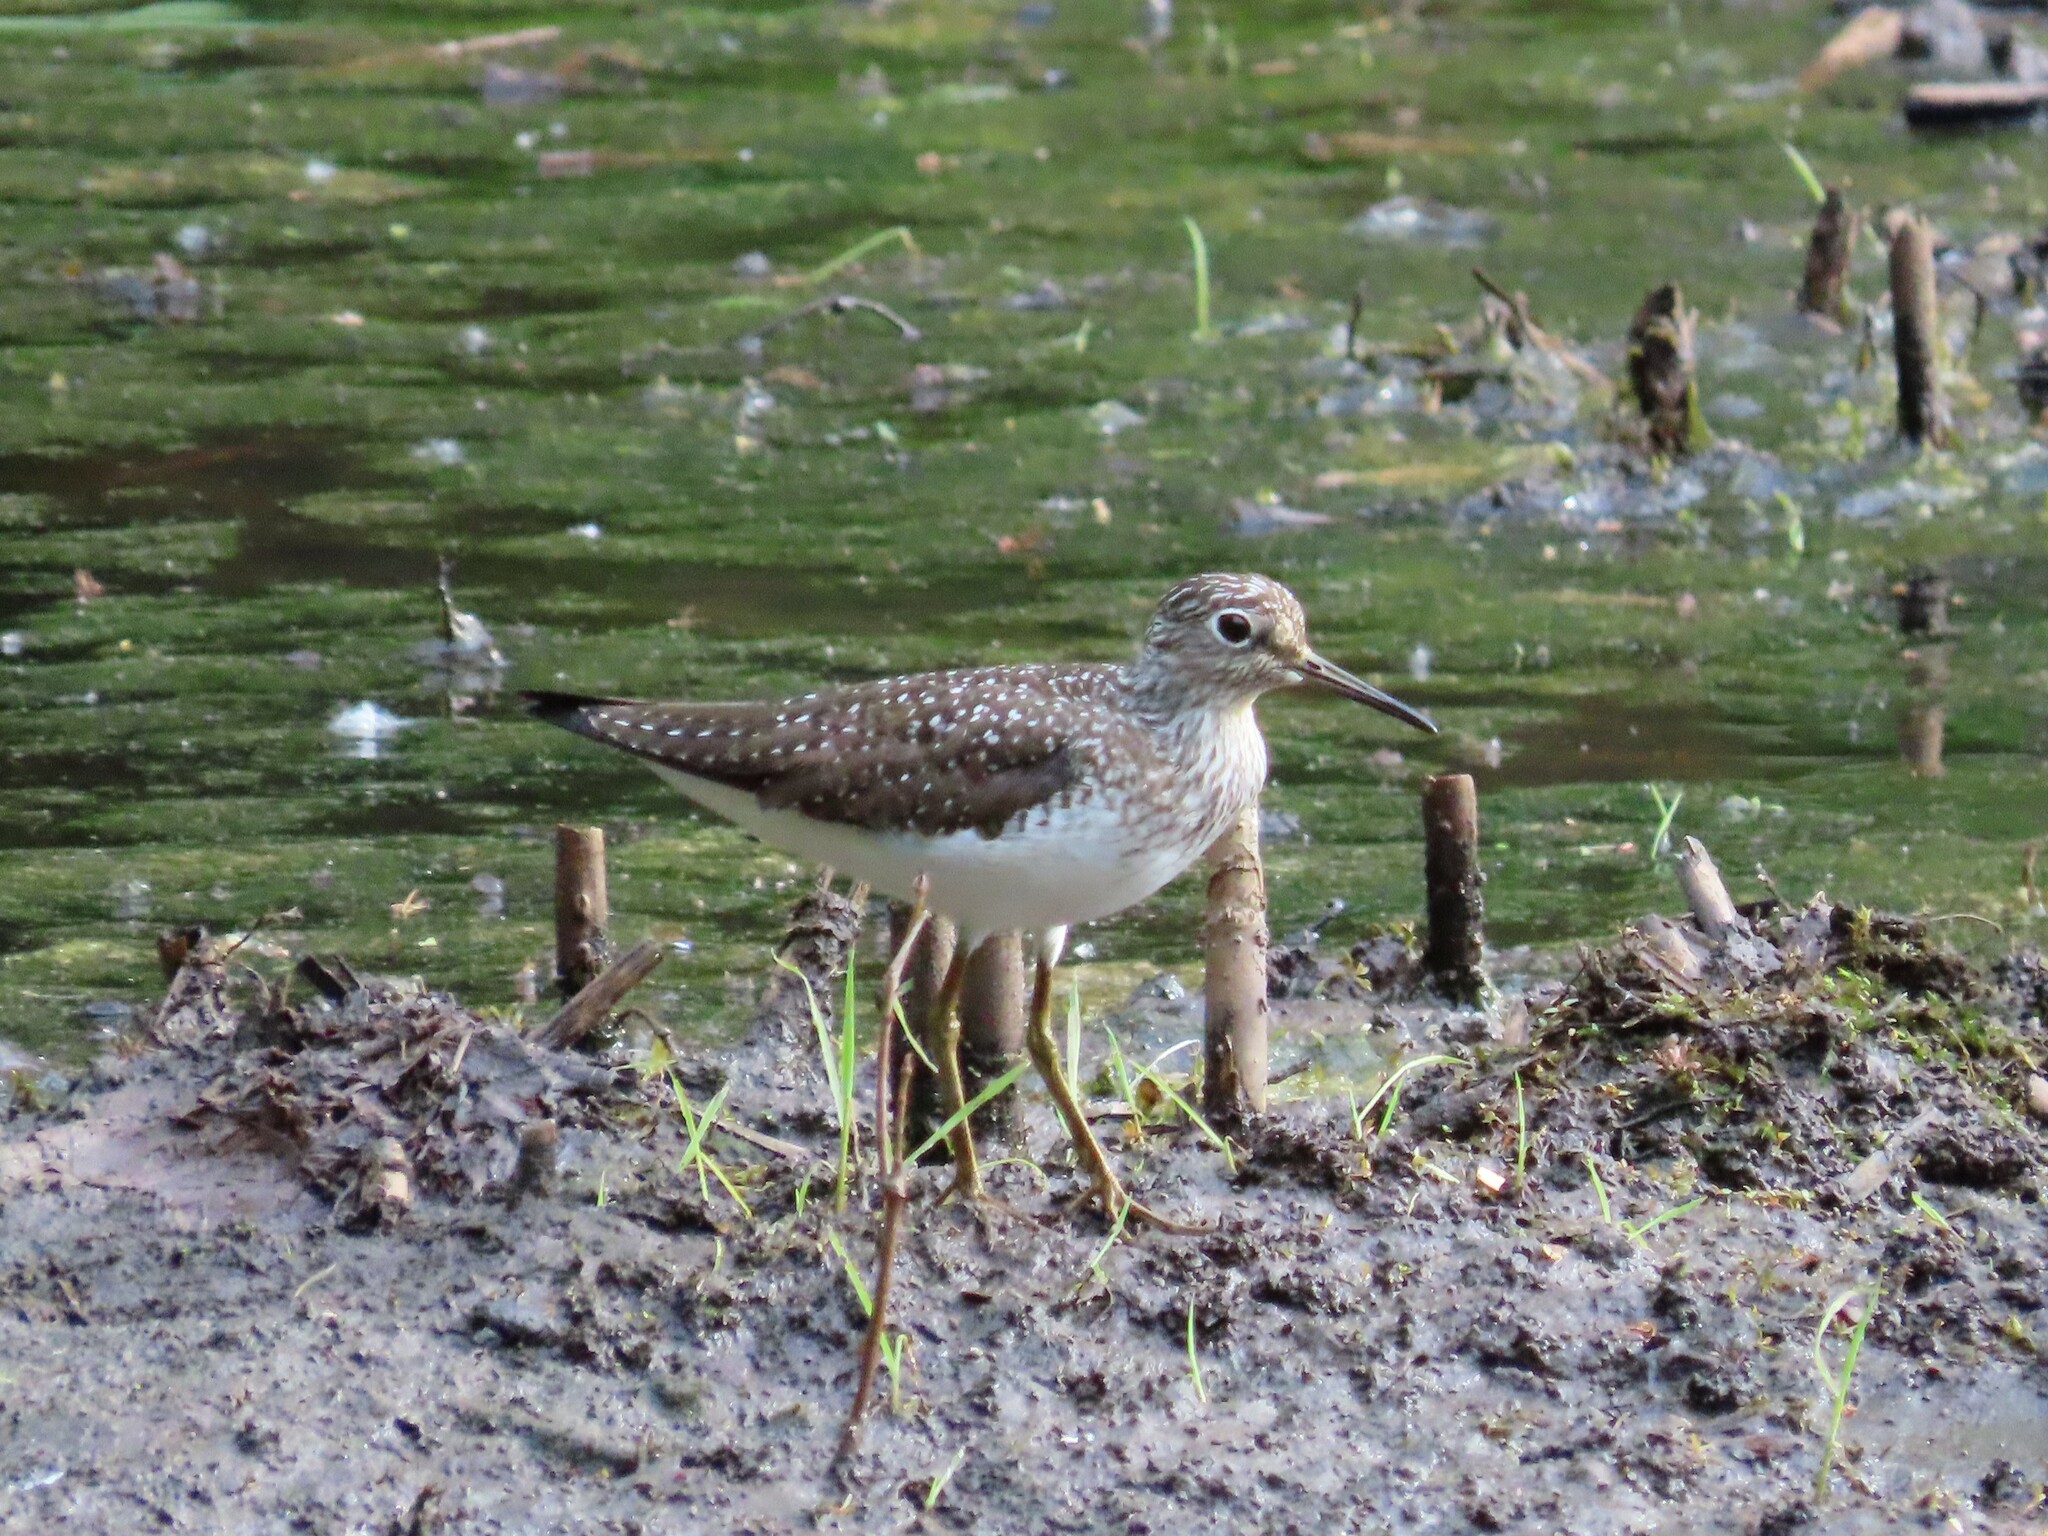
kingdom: Animalia
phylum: Chordata
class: Aves
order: Charadriiformes
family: Scolopacidae
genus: Tringa
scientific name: Tringa solitaria
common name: Solitary sandpiper
